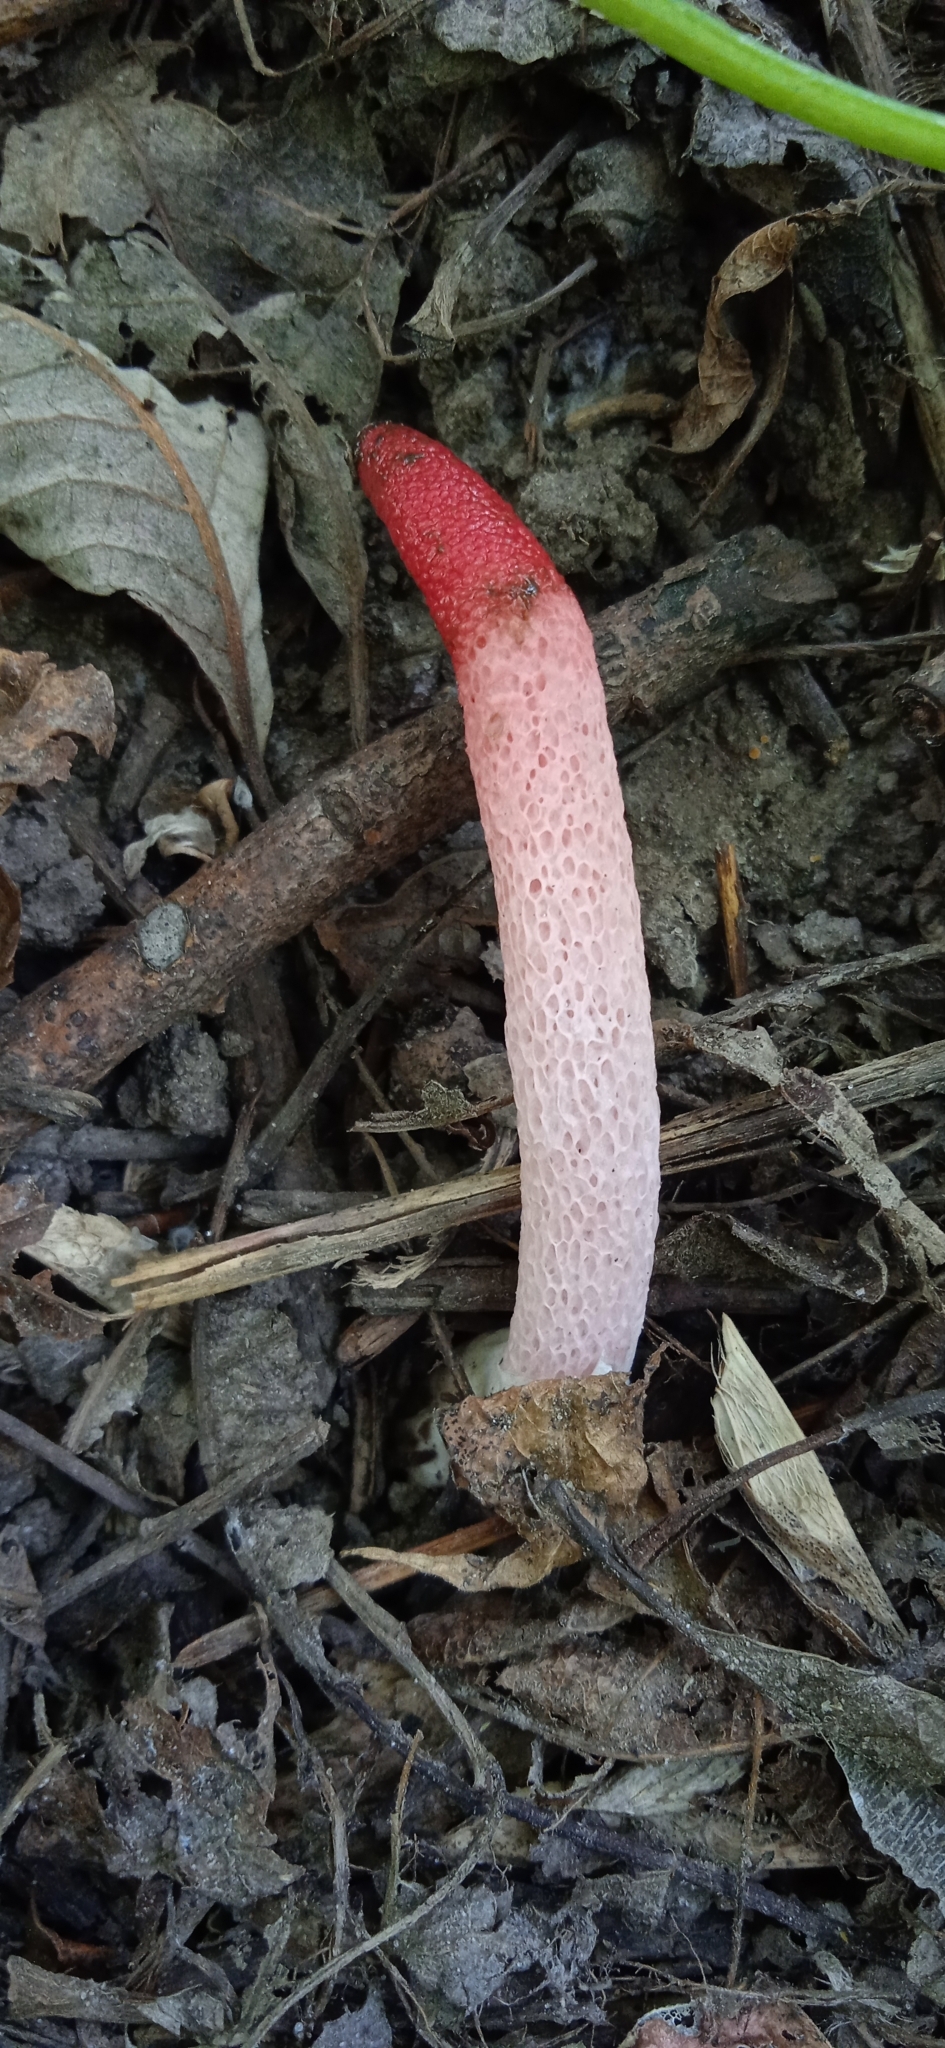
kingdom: Fungi
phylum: Basidiomycota
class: Agaricomycetes
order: Phallales
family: Phallaceae
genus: Mutinus
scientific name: Mutinus ravenelii
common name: Red stinkhorn
